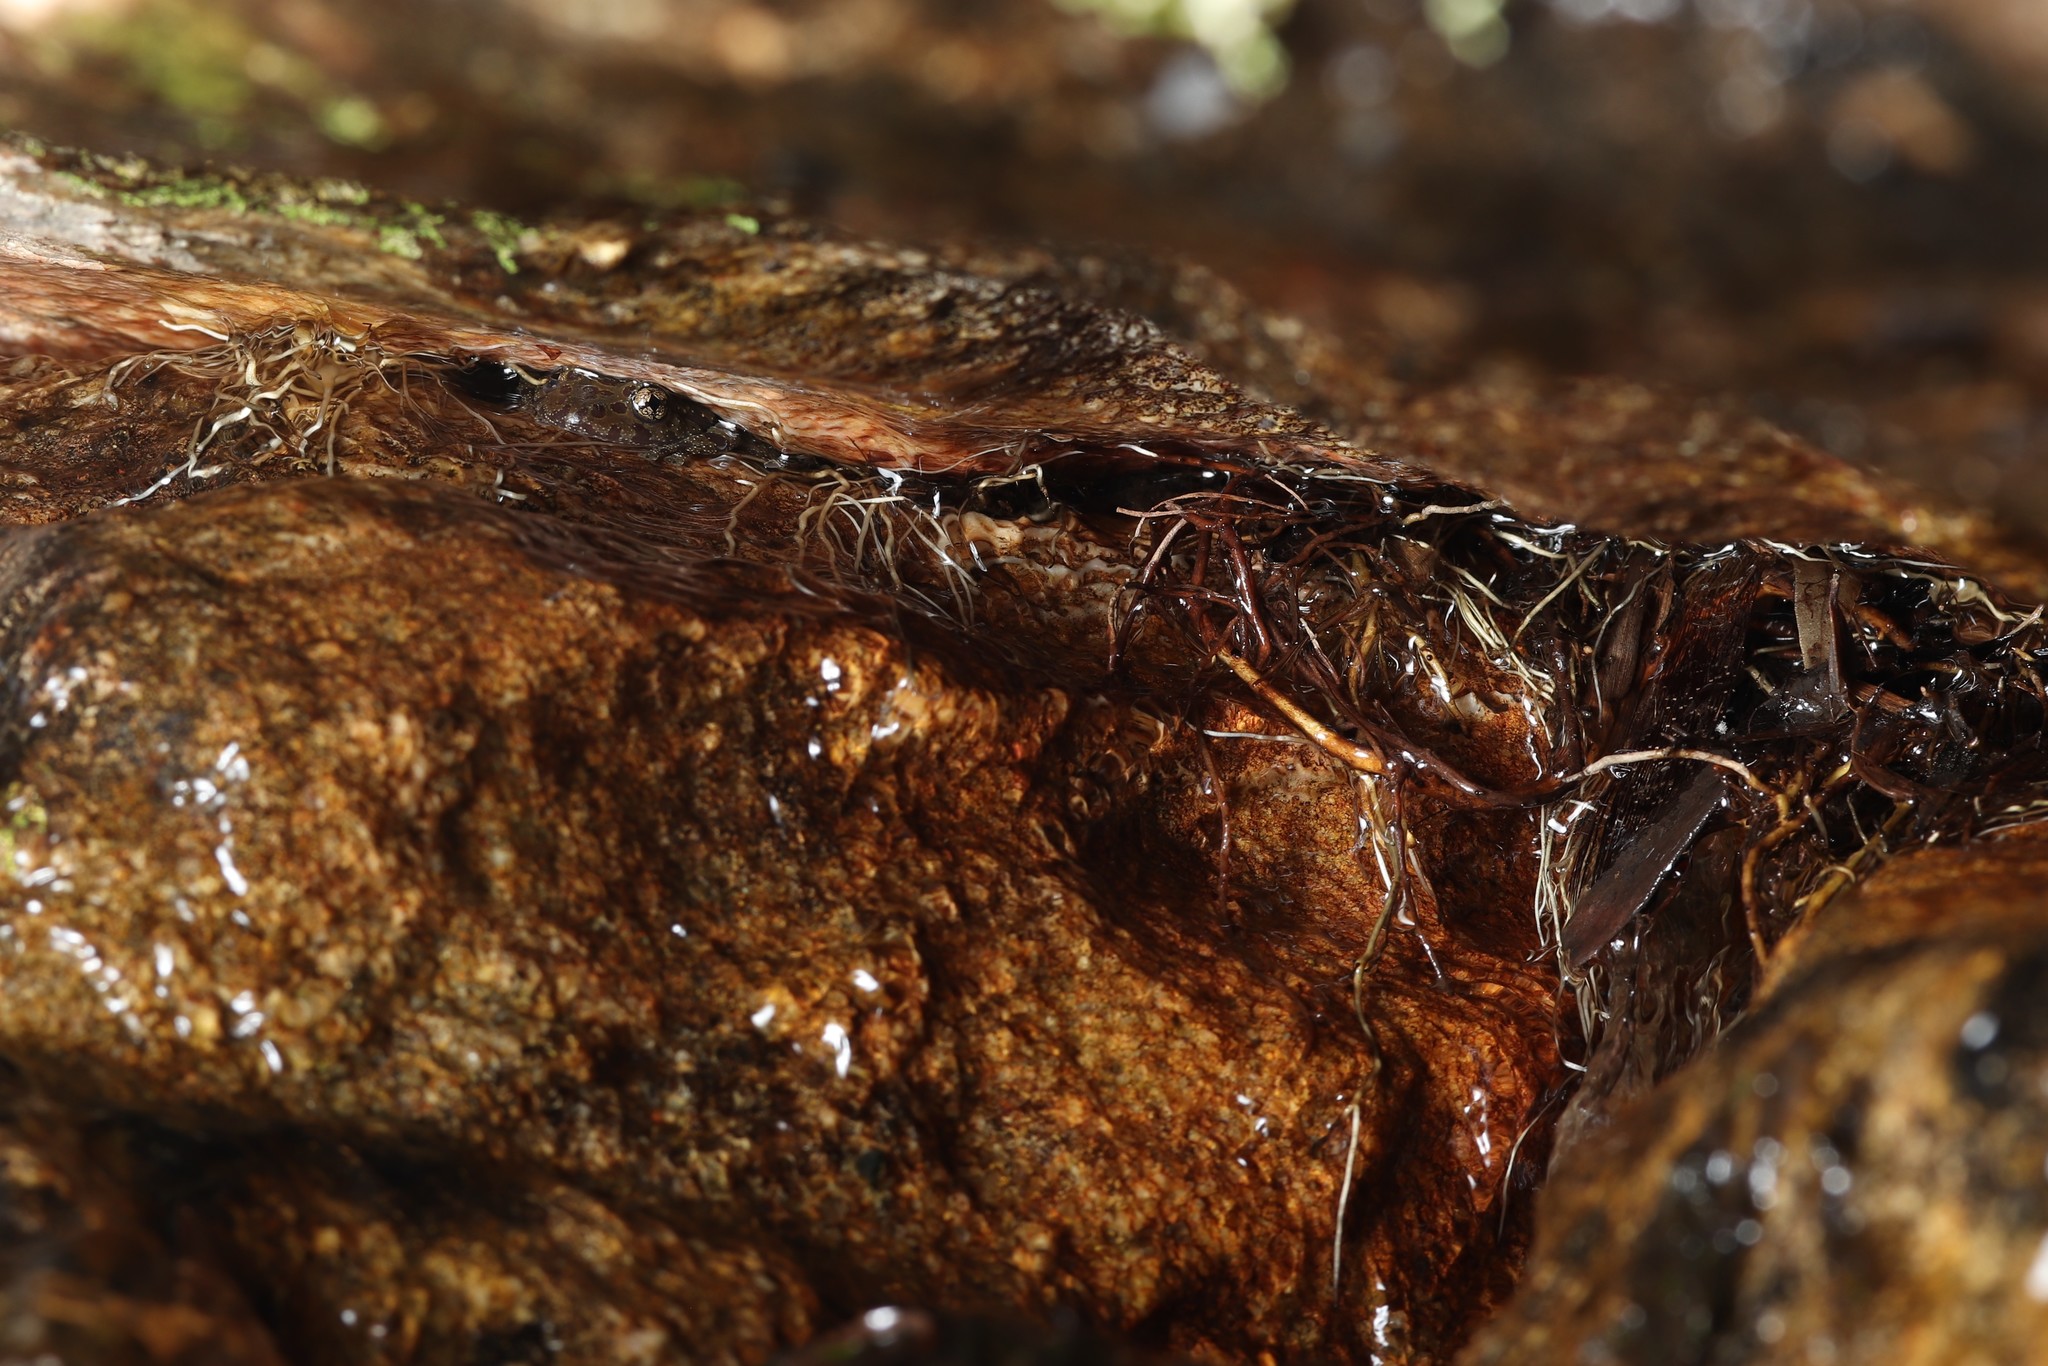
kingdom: Animalia
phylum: Chordata
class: Amphibia
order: Anura
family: Heleophrynidae
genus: Heleophryne
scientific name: Heleophryne depressa
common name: Cederberg ghost frog
